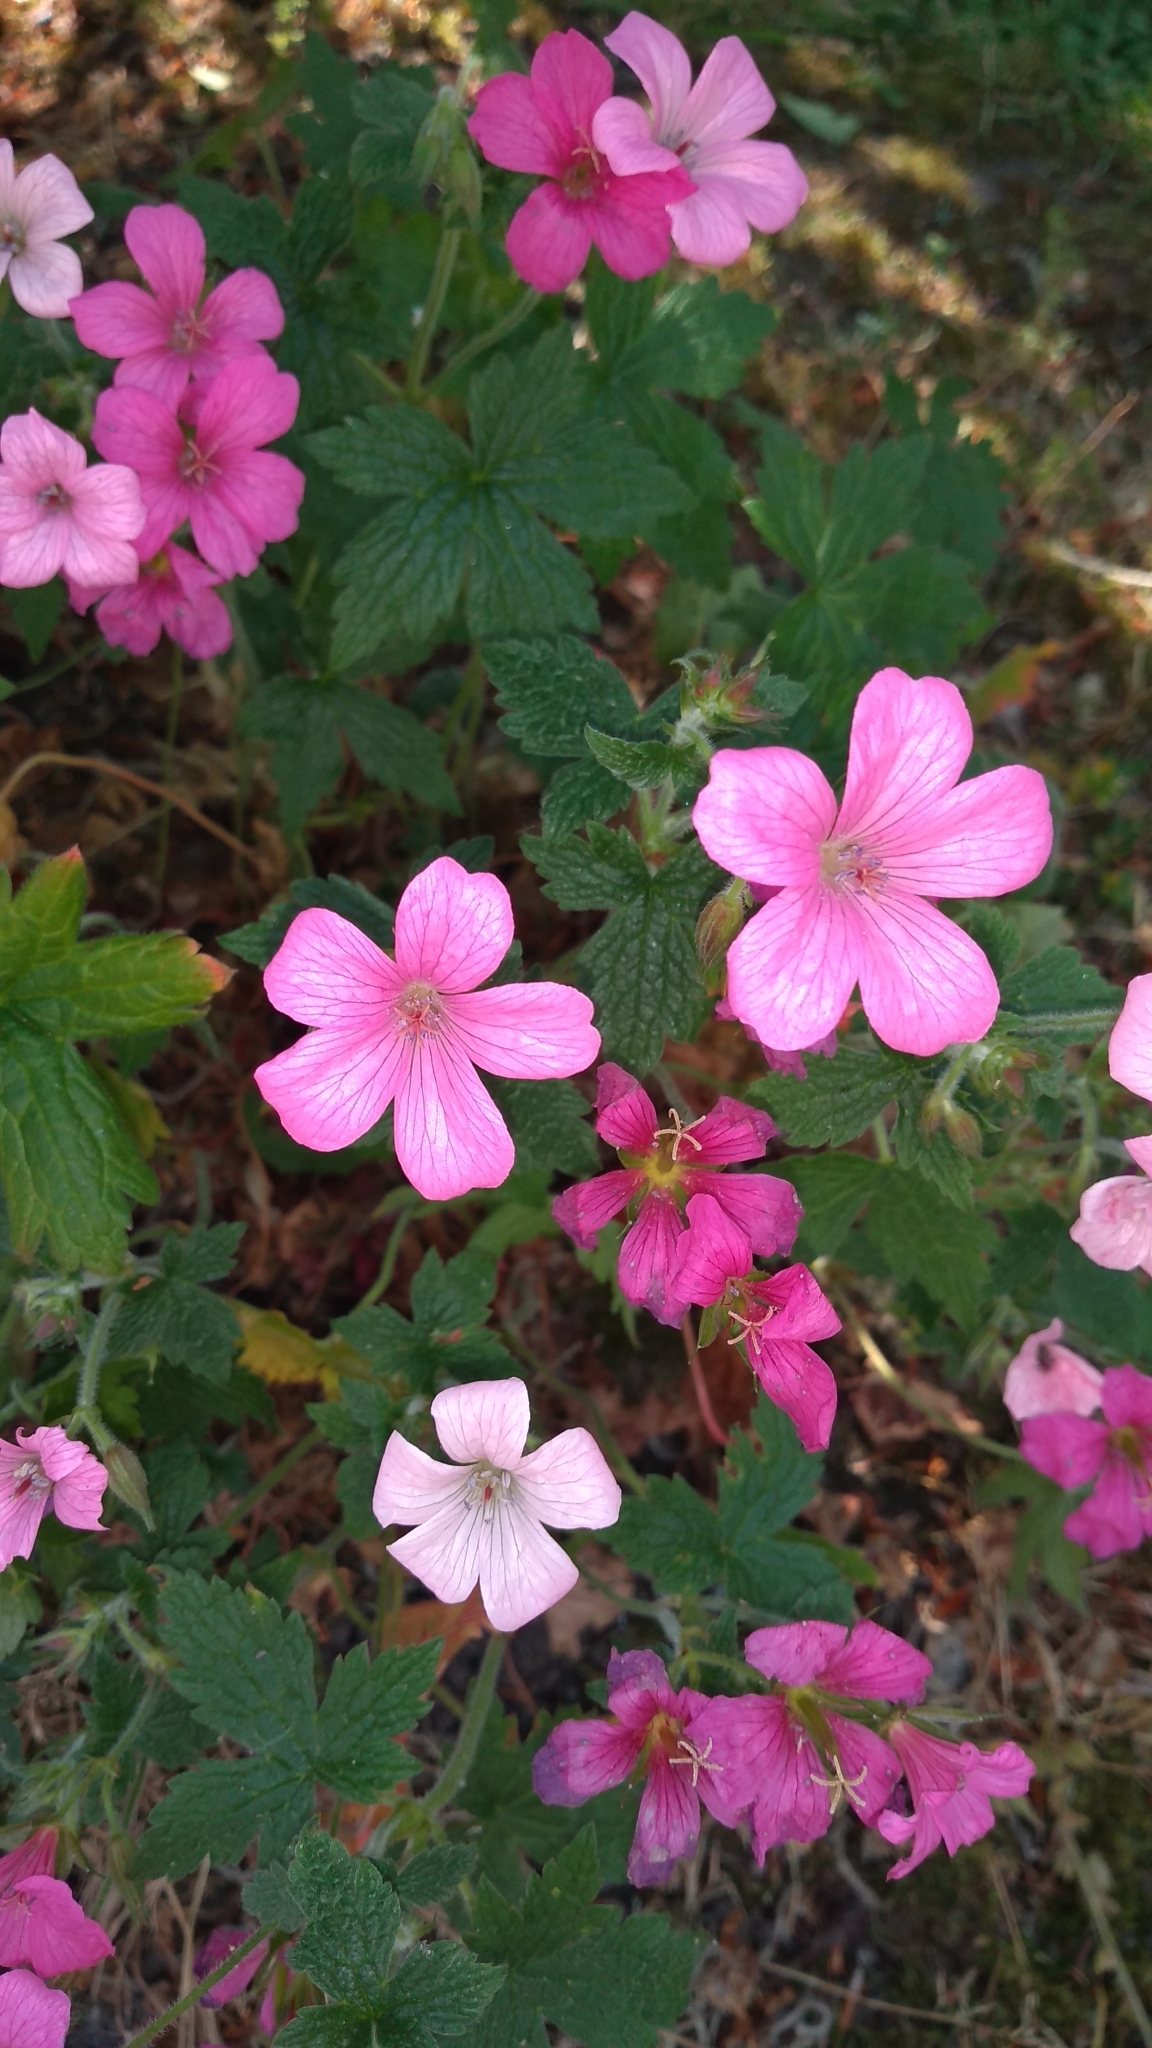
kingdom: Plantae
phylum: Tracheophyta
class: Magnoliopsida
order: Geraniales
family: Geraniaceae
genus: Geranium
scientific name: Geranium oxonianum
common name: Druce's crane's-bill
